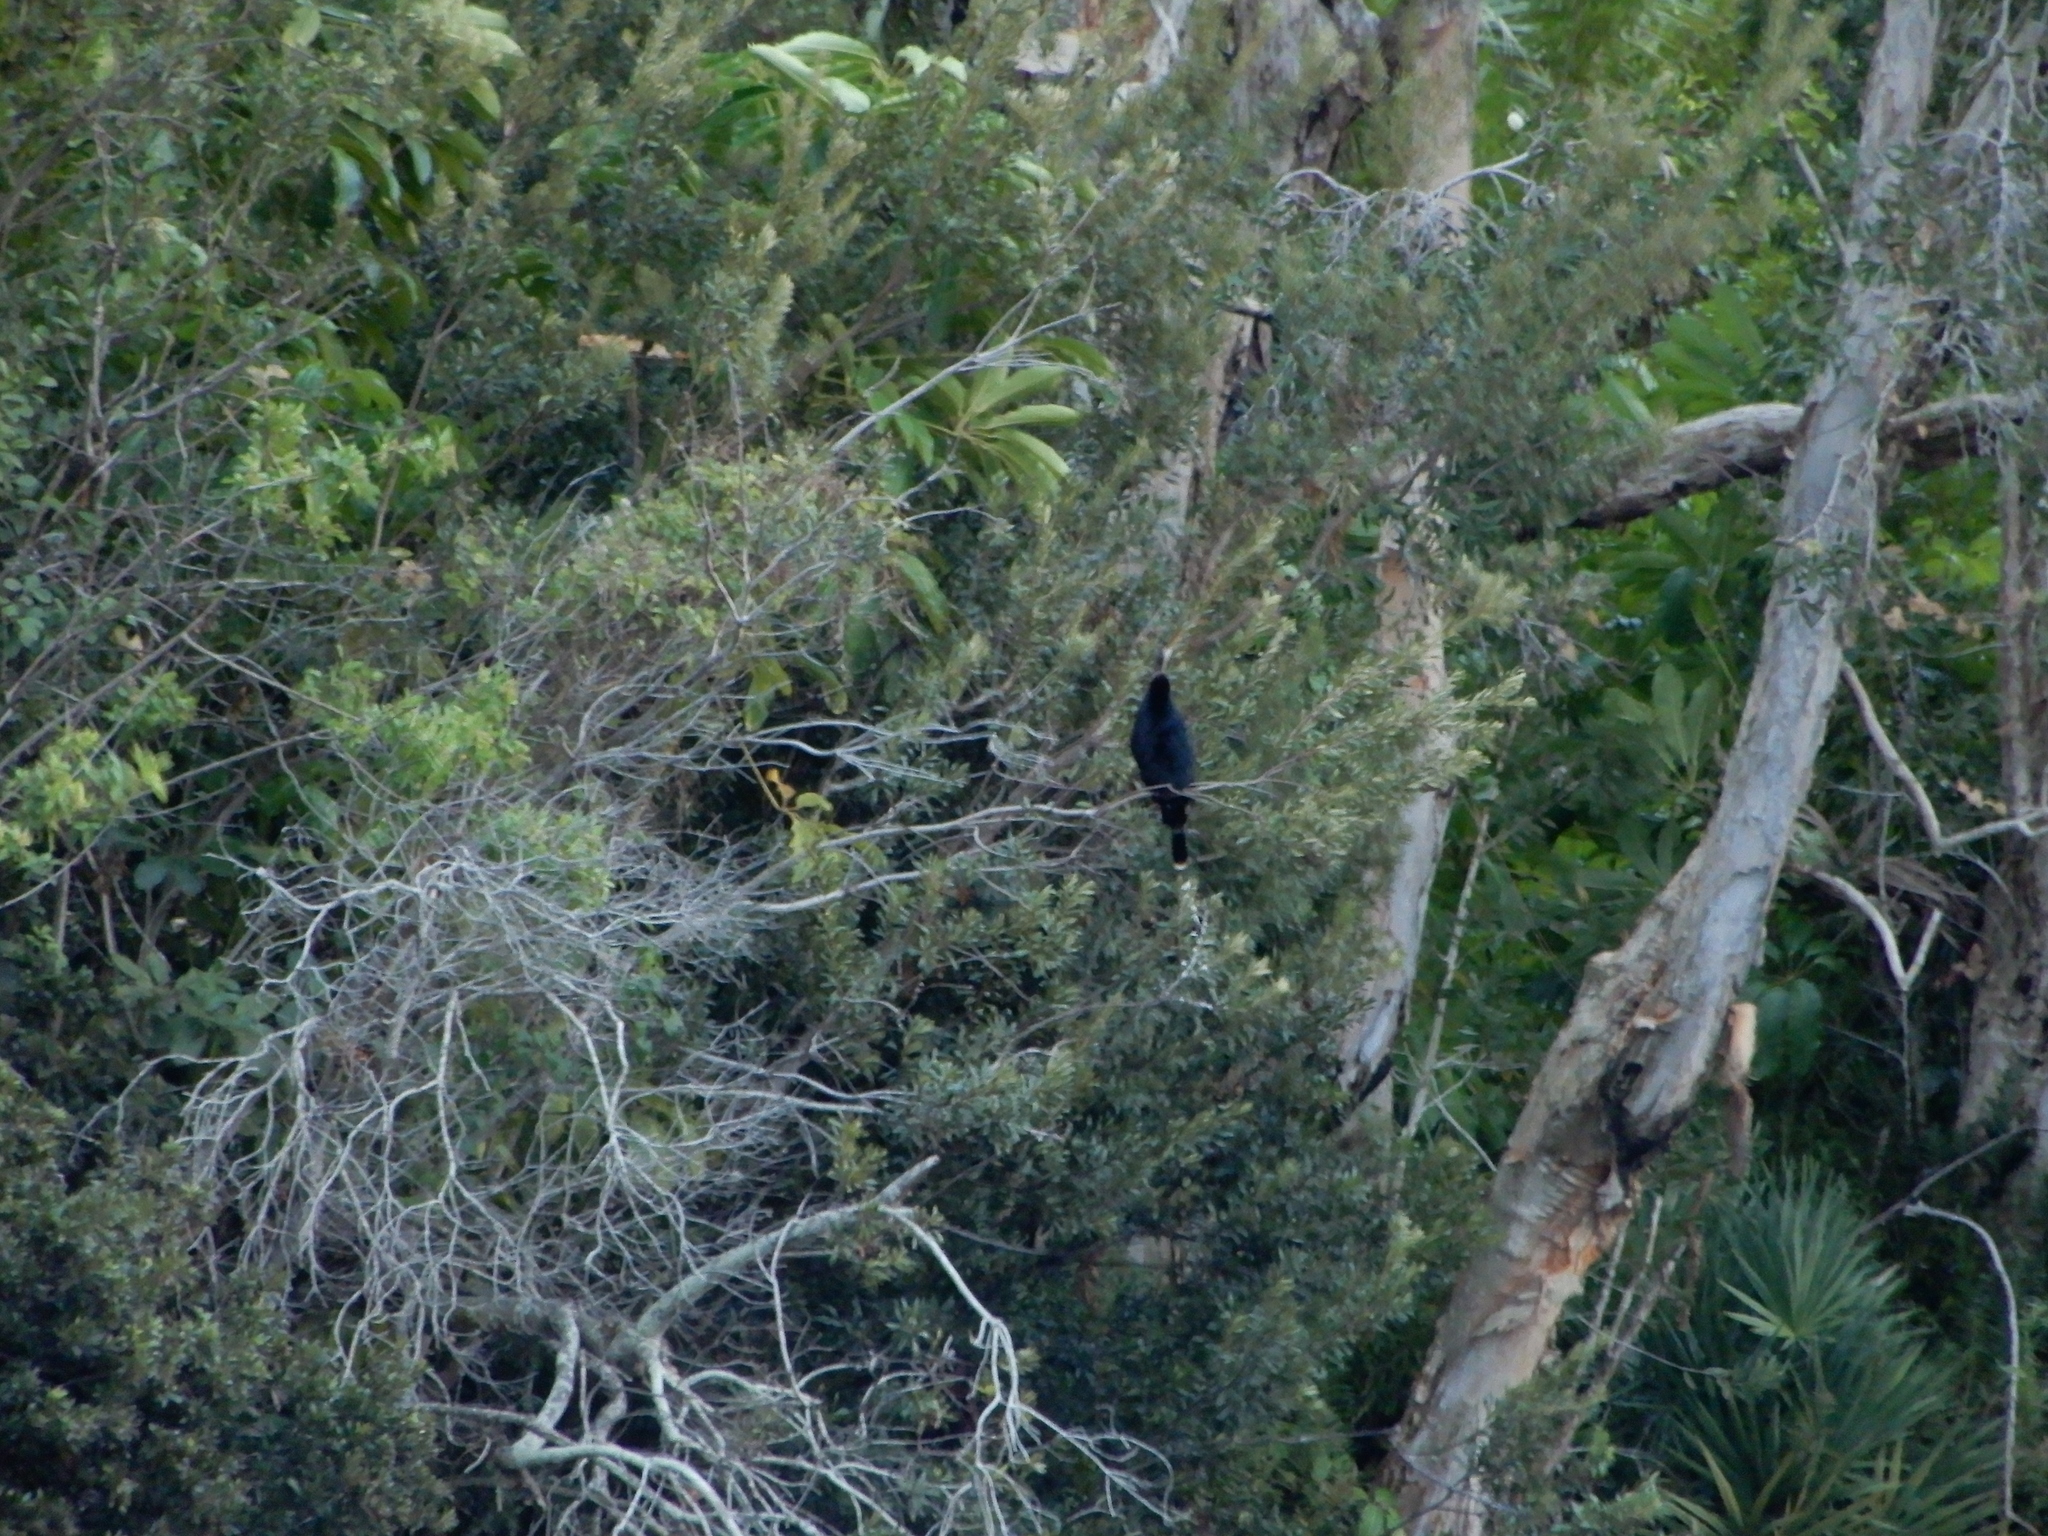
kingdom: Animalia
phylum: Chordata
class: Aves
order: Suliformes
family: Anhingidae
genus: Anhinga
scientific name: Anhinga anhinga
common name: Anhinga
